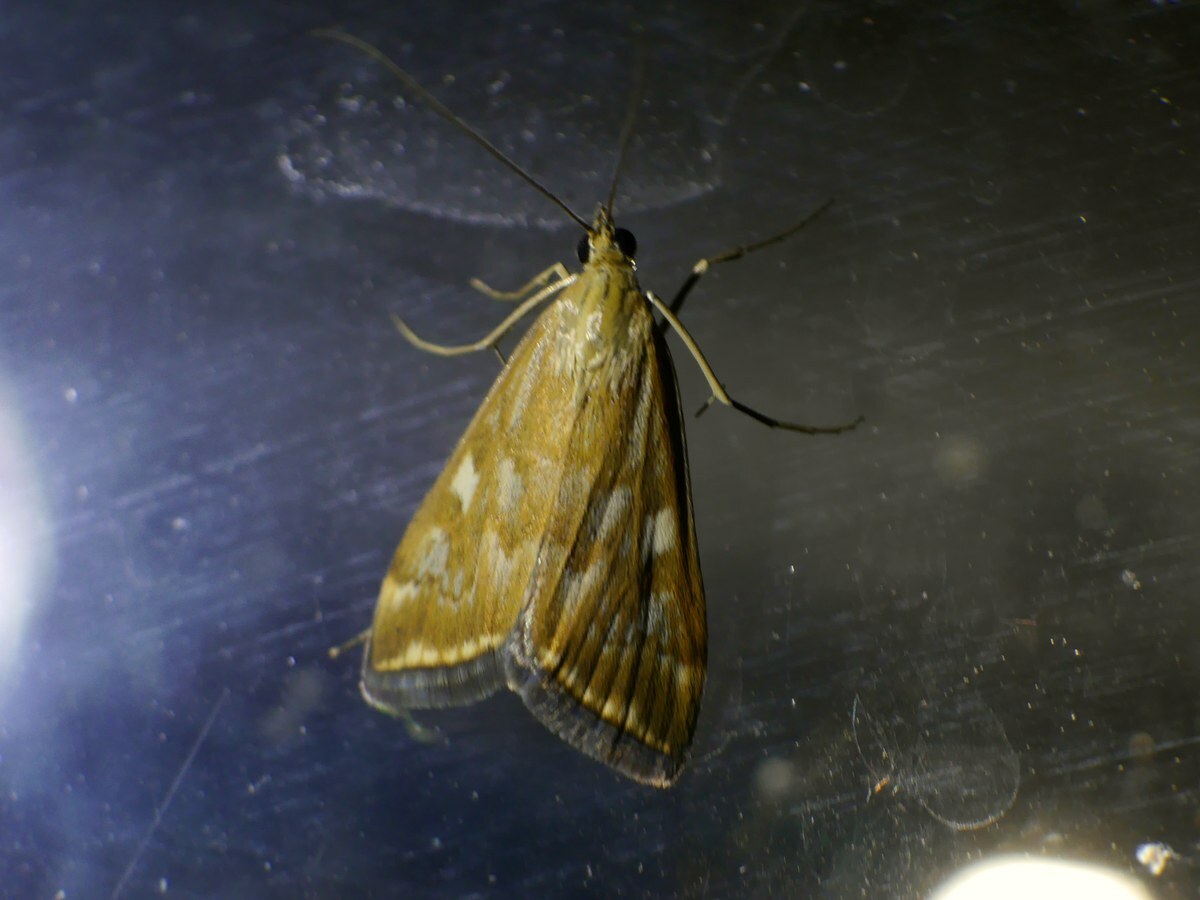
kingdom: Animalia
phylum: Arthropoda
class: Insecta
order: Lepidoptera
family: Crambidae
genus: Loxostege
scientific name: Loxostege sticticalis
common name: Crambid moth
